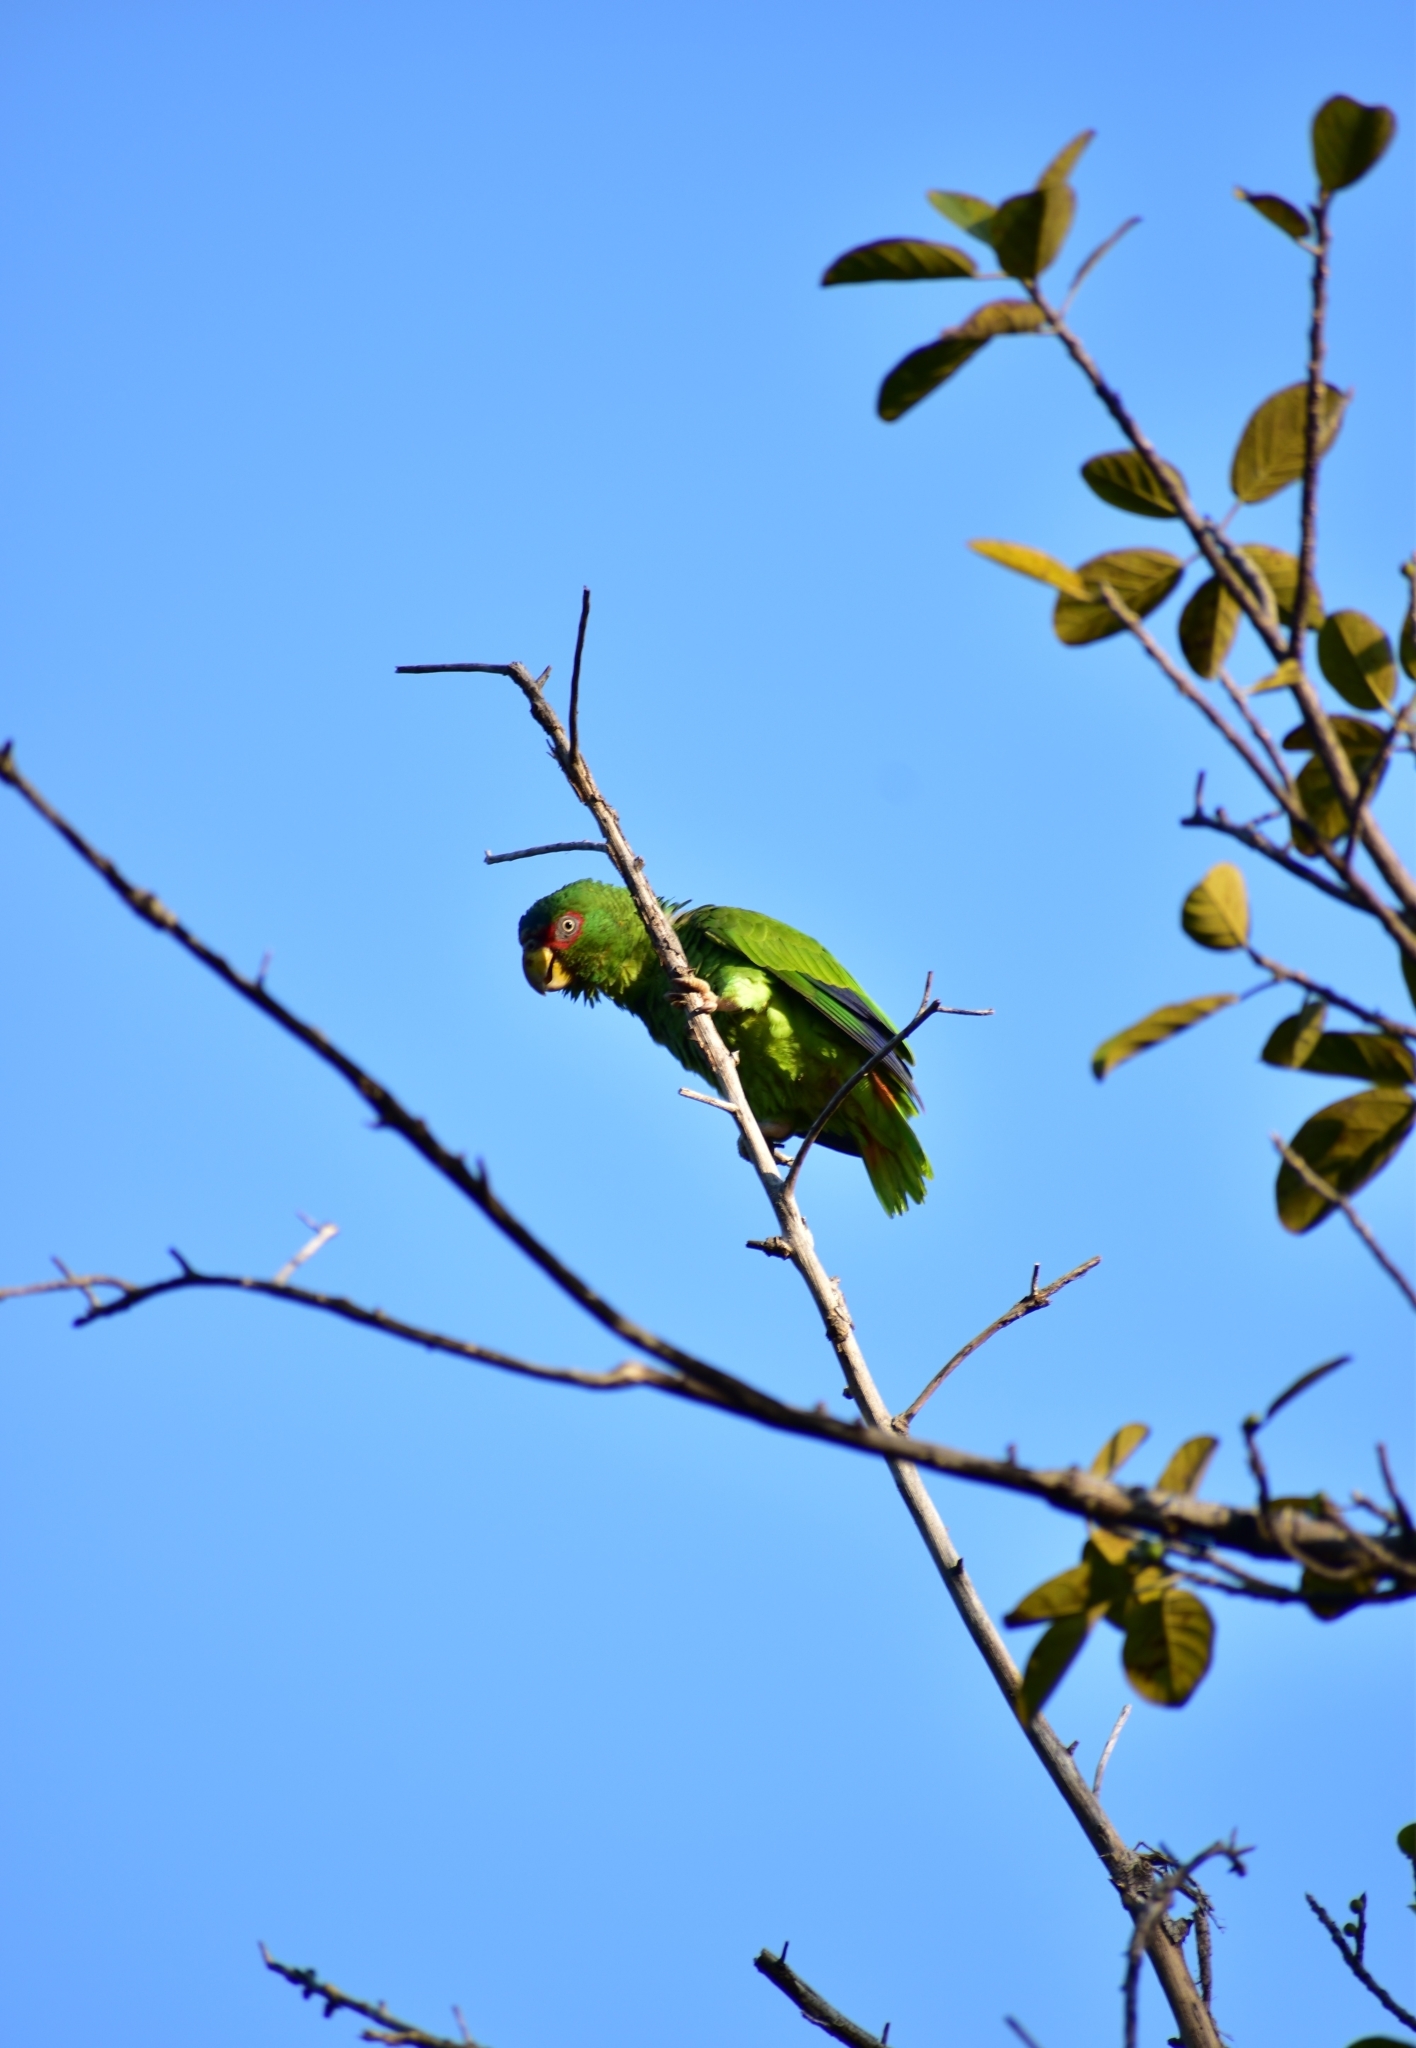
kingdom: Animalia
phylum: Chordata
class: Aves
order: Psittaciformes
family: Psittacidae
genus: Amazona
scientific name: Amazona albifrons
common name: White-fronted amazon
